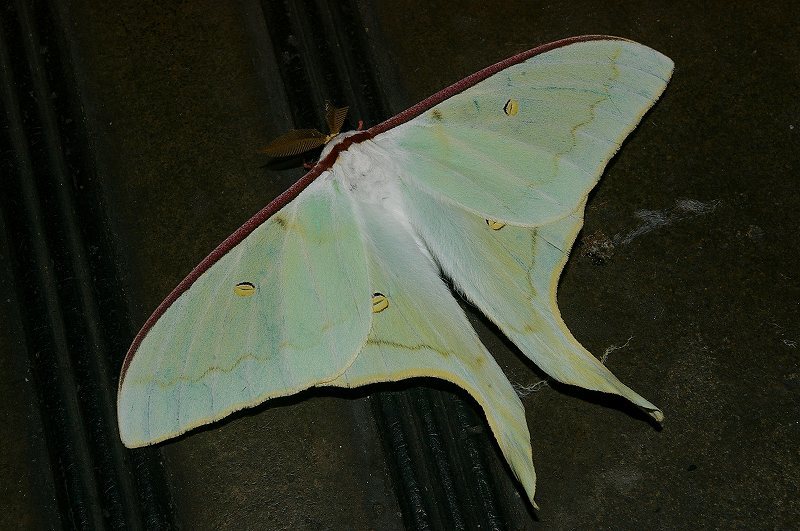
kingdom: Animalia
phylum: Arthropoda
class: Insecta
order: Lepidoptera
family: Saturniidae
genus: Actias
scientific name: Actias aliena
